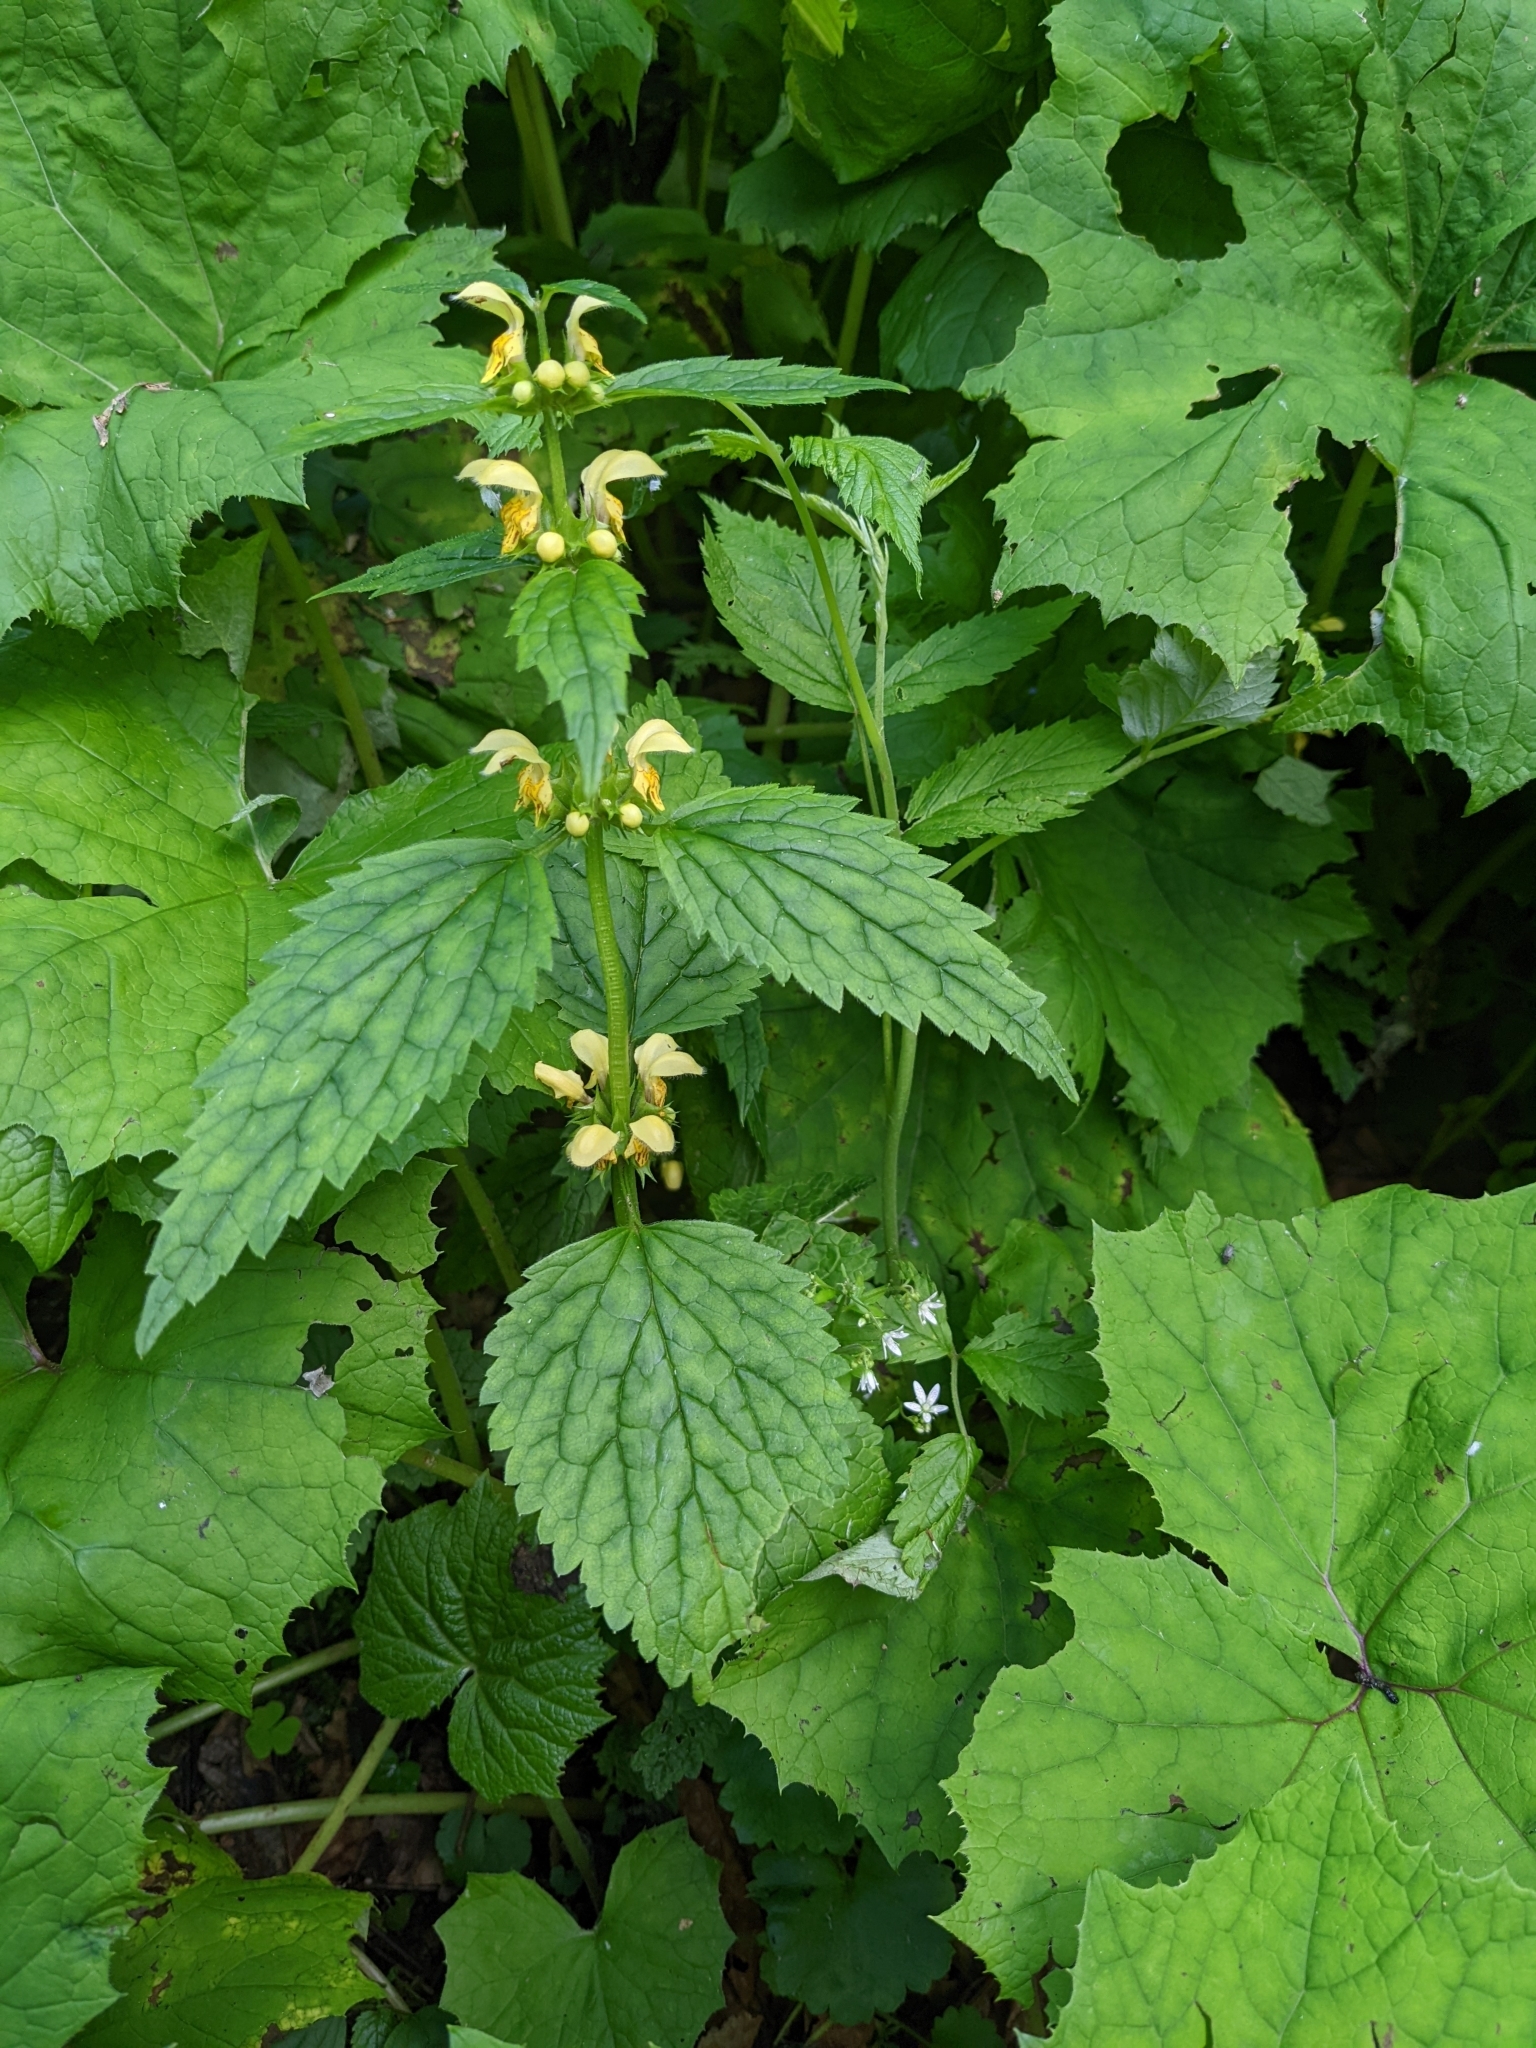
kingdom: Plantae
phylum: Tracheophyta
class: Magnoliopsida
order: Lamiales
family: Lamiaceae
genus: Lamium
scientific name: Lamium galeobdolon
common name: Yellow archangel
